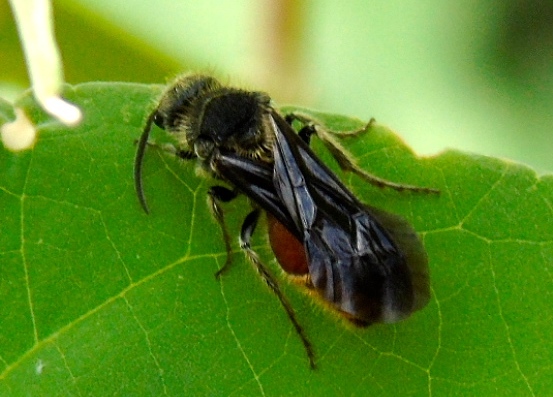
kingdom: Animalia
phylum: Arthropoda
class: Insecta
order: Hymenoptera
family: Mutillidae
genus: Pseudomethoca
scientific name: Pseudomethoca
